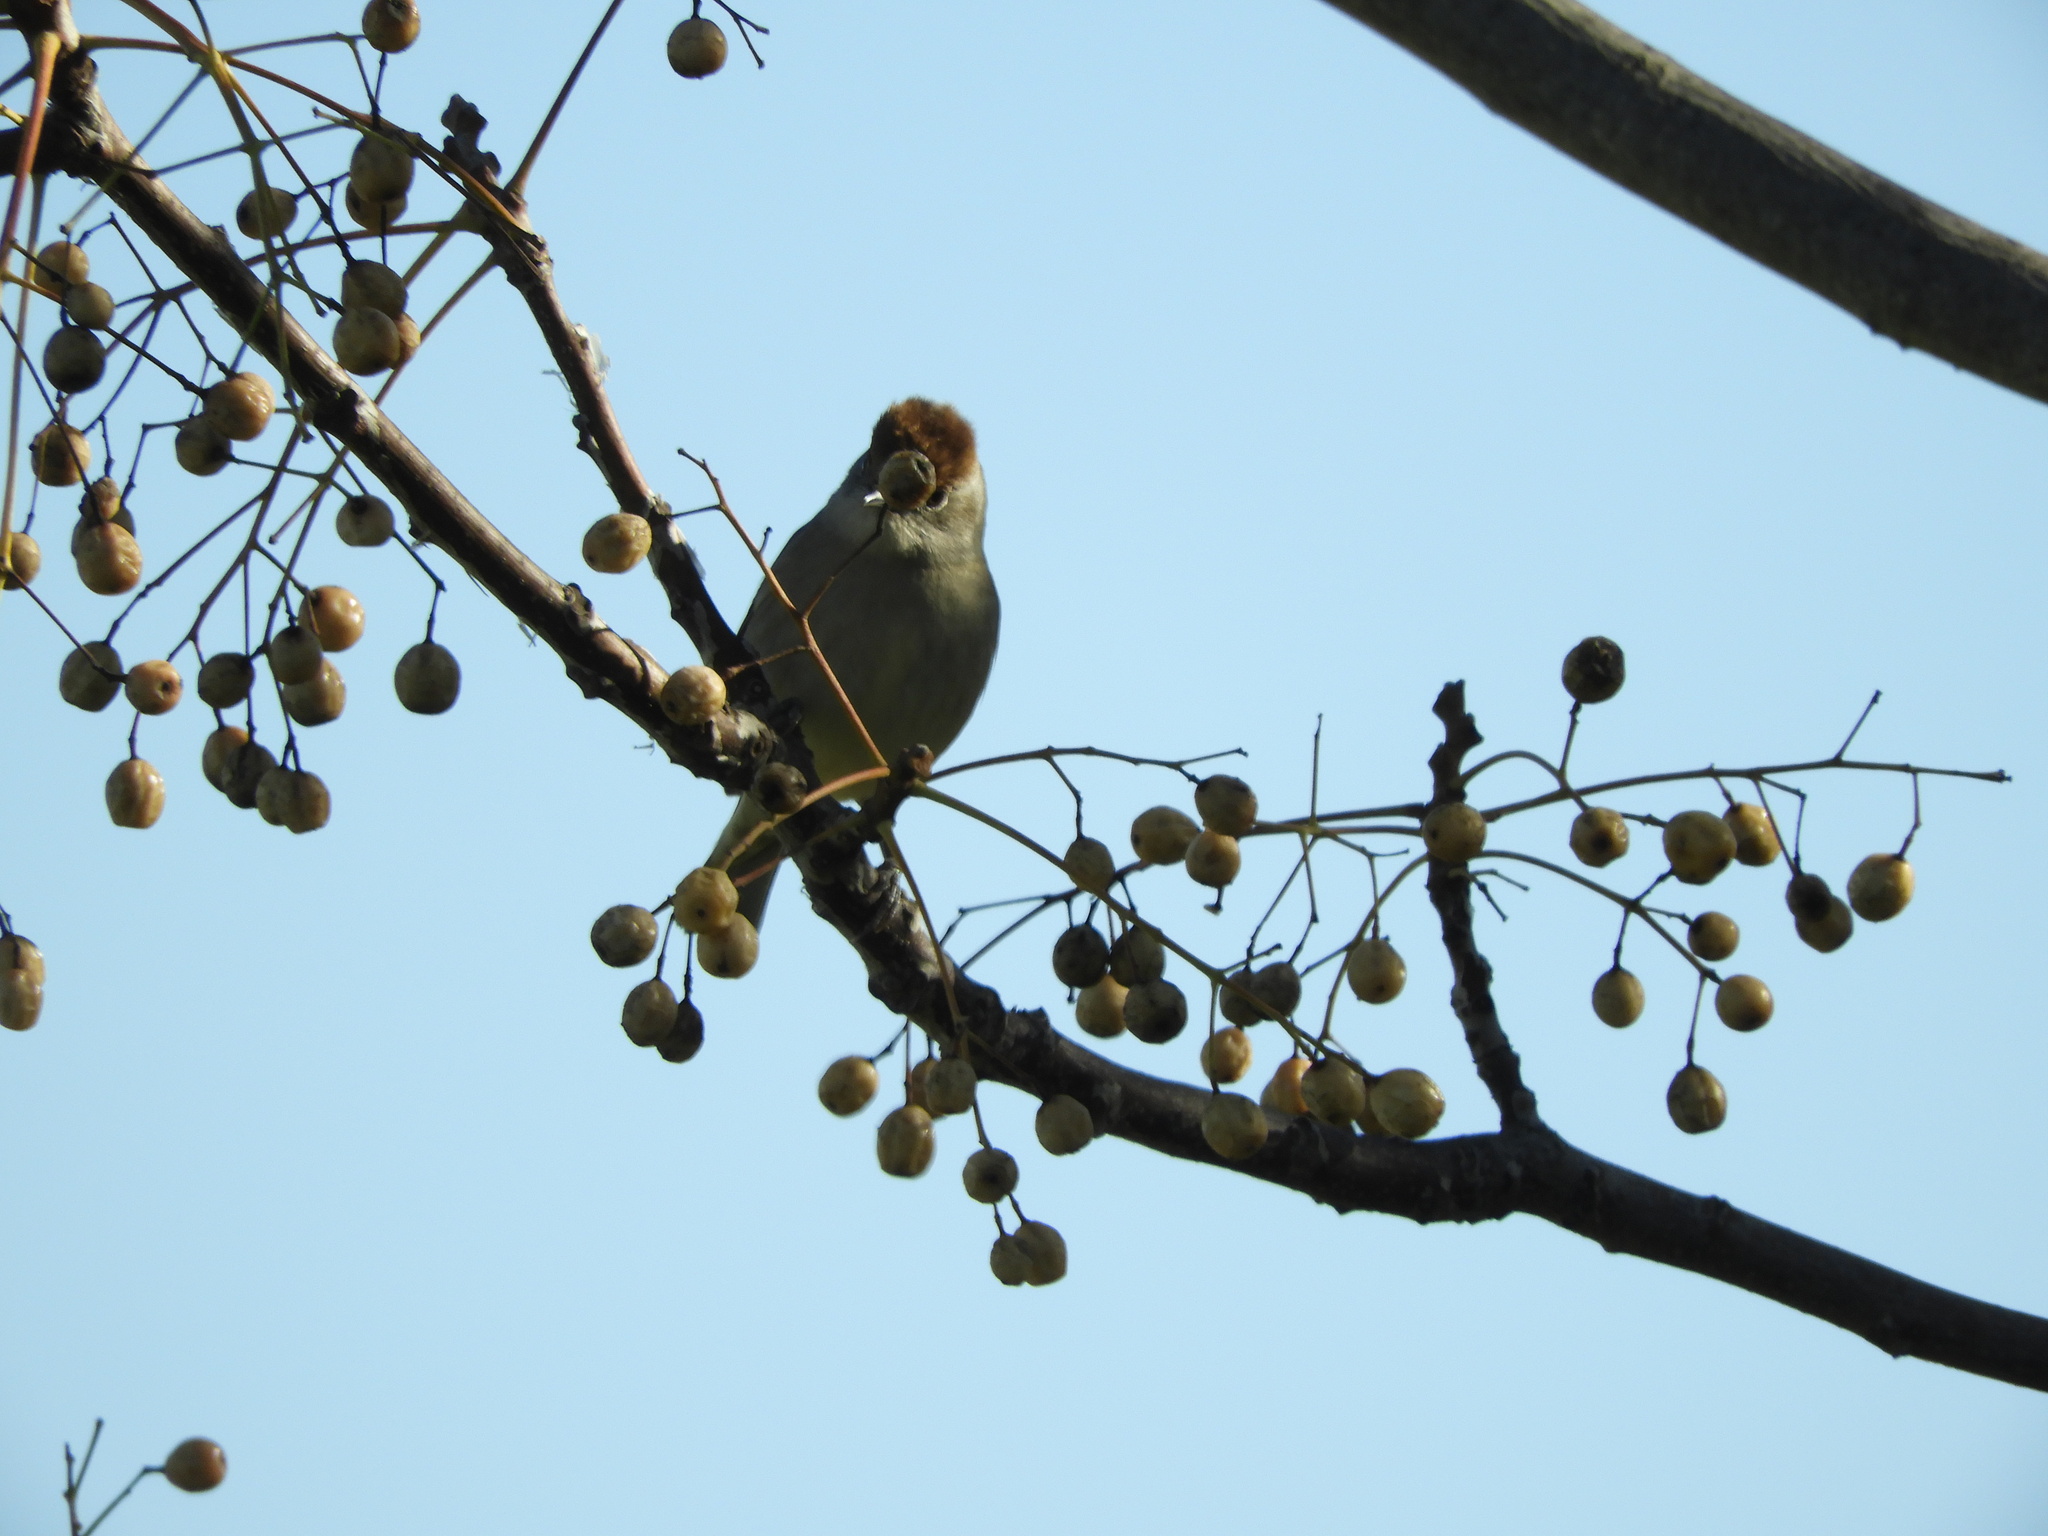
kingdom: Animalia
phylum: Chordata
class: Aves
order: Passeriformes
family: Sylviidae
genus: Sylvia
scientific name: Sylvia atricapilla
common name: Eurasian blackcap
